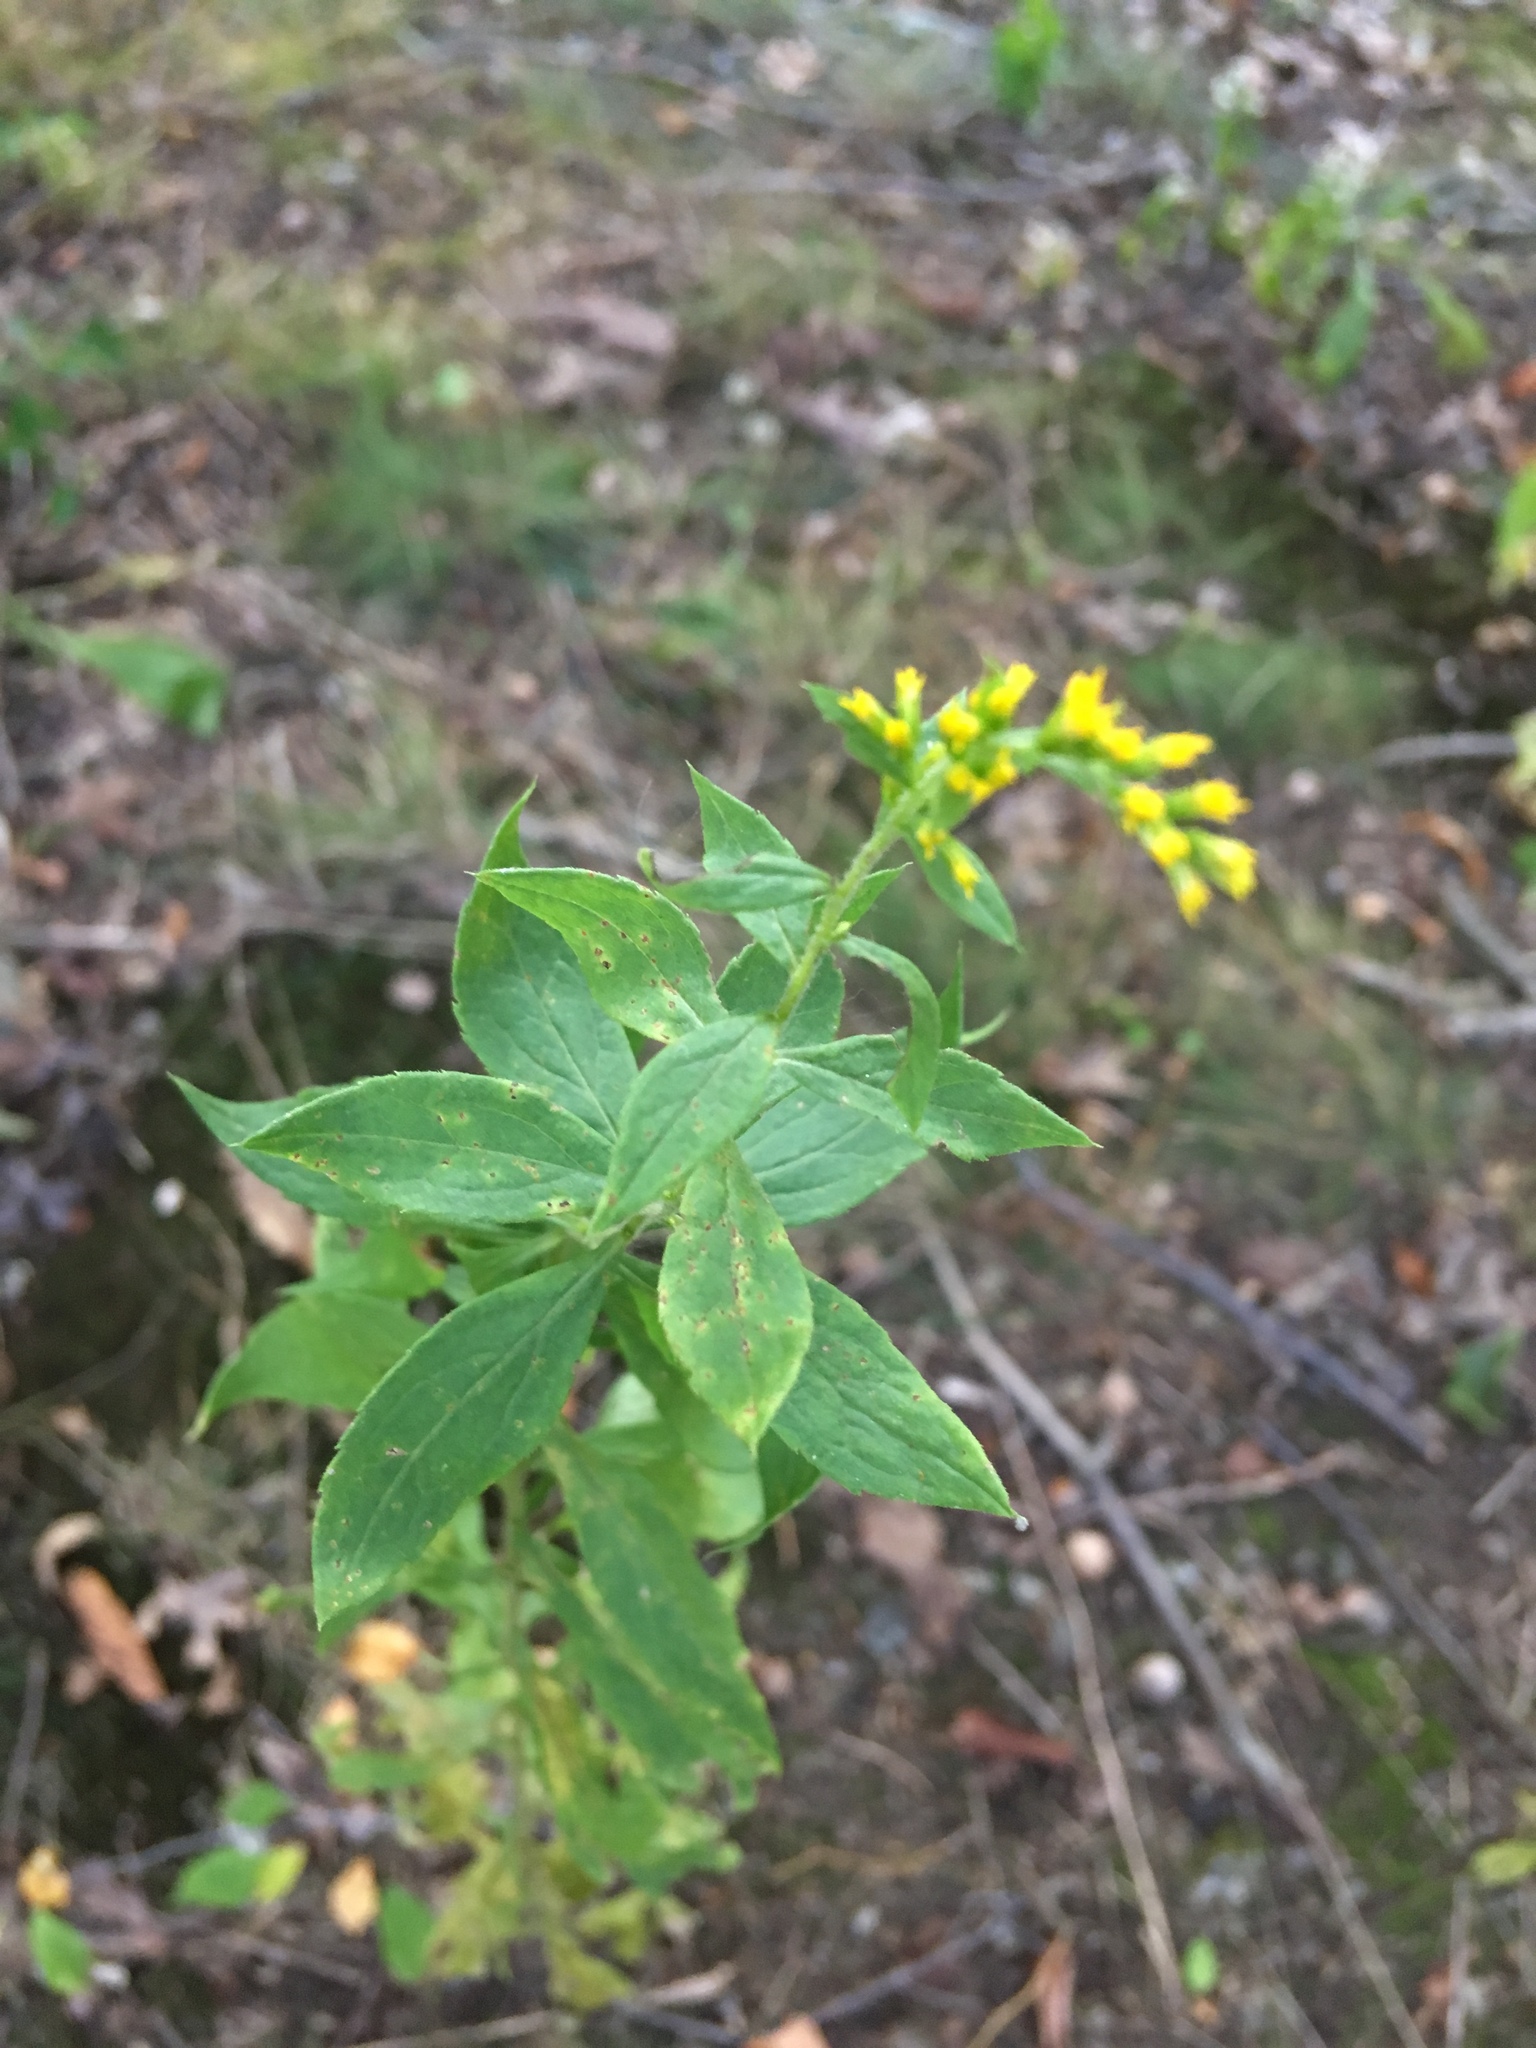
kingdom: Plantae
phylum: Tracheophyta
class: Magnoliopsida
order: Asterales
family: Asteraceae
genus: Solidago
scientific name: Solidago rugosa
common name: Rough-stemmed goldenrod
